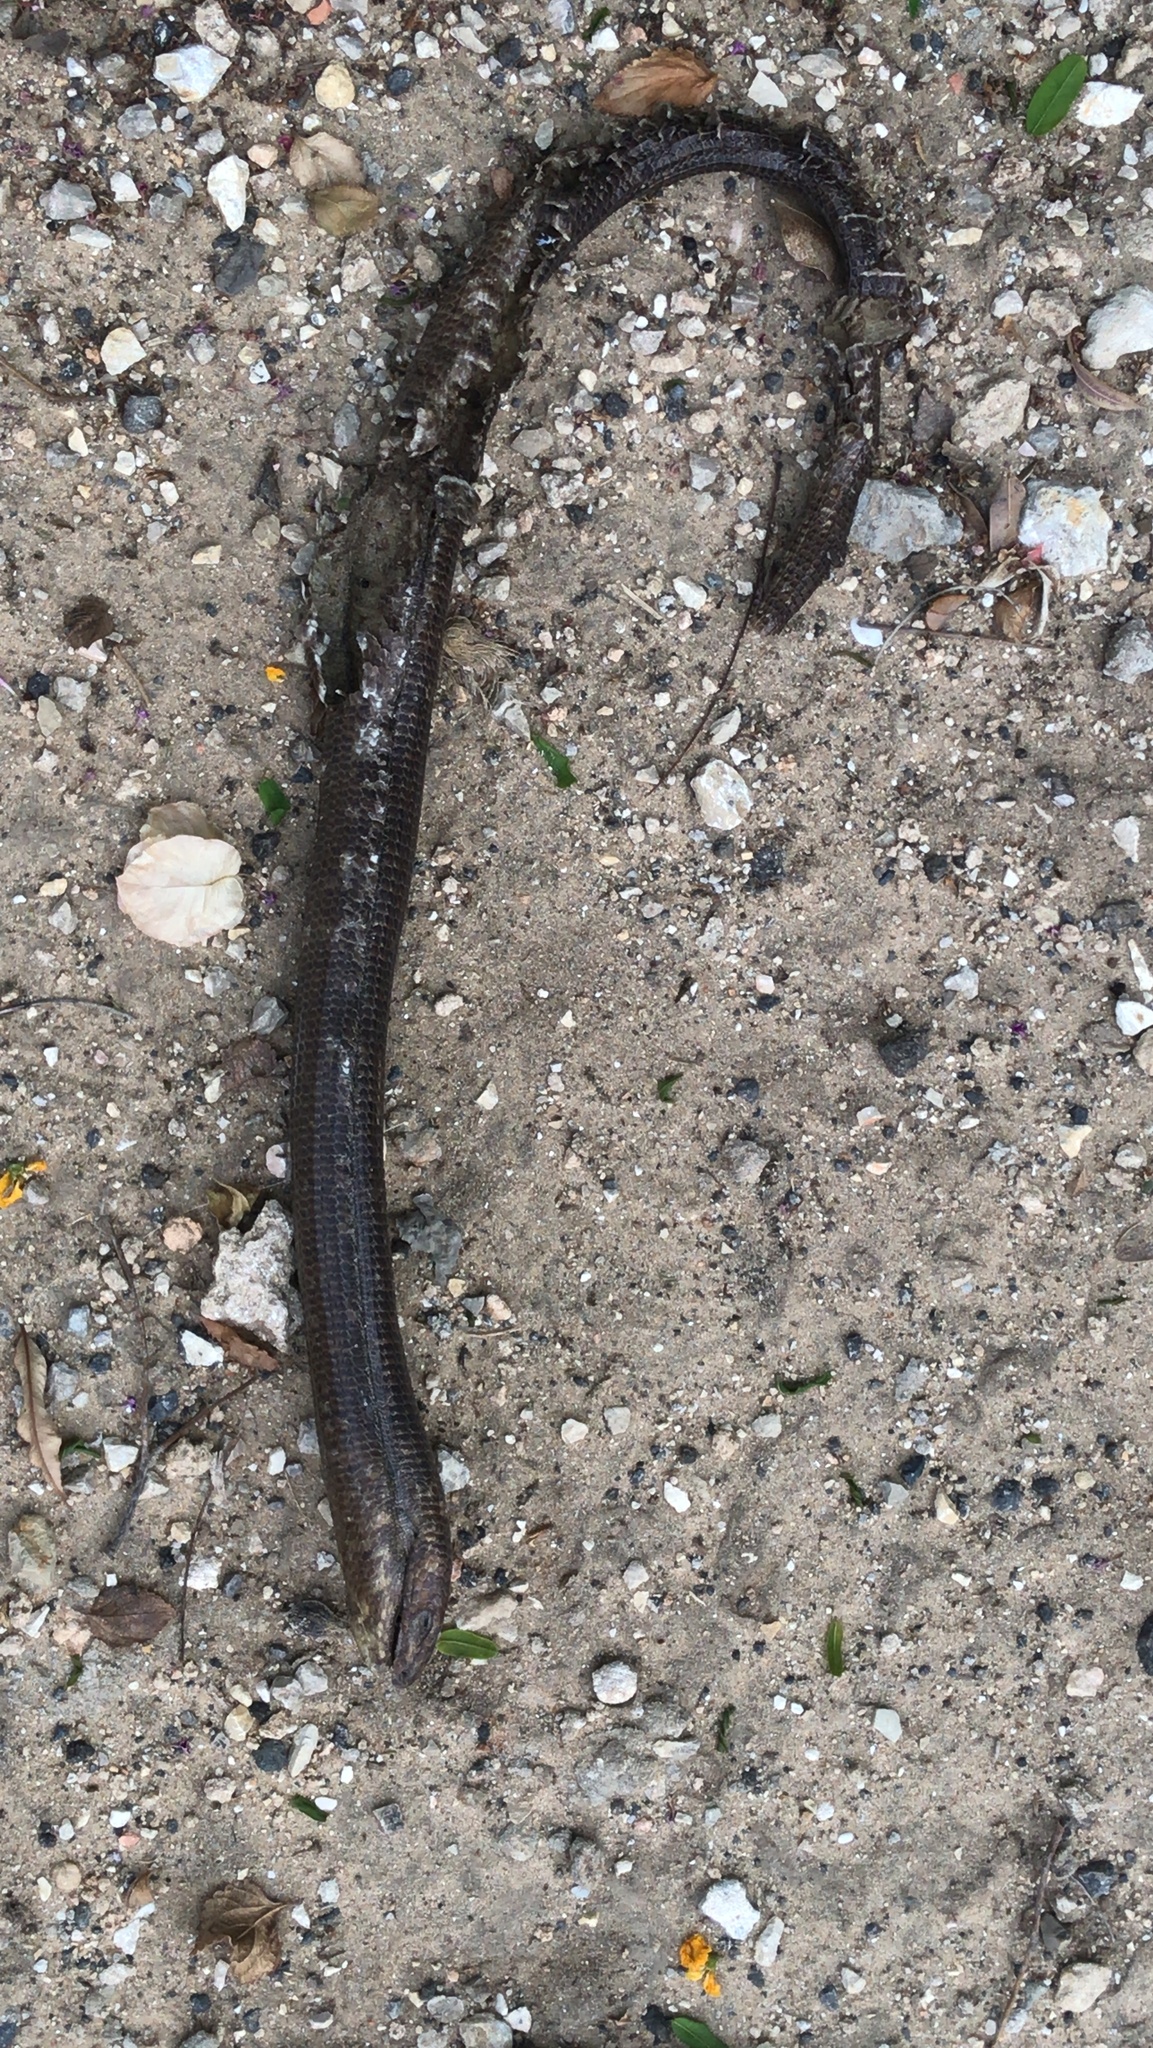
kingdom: Animalia
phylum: Chordata
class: Squamata
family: Anguidae
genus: Pseudopus
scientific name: Pseudopus apodus
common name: European glass lizard
